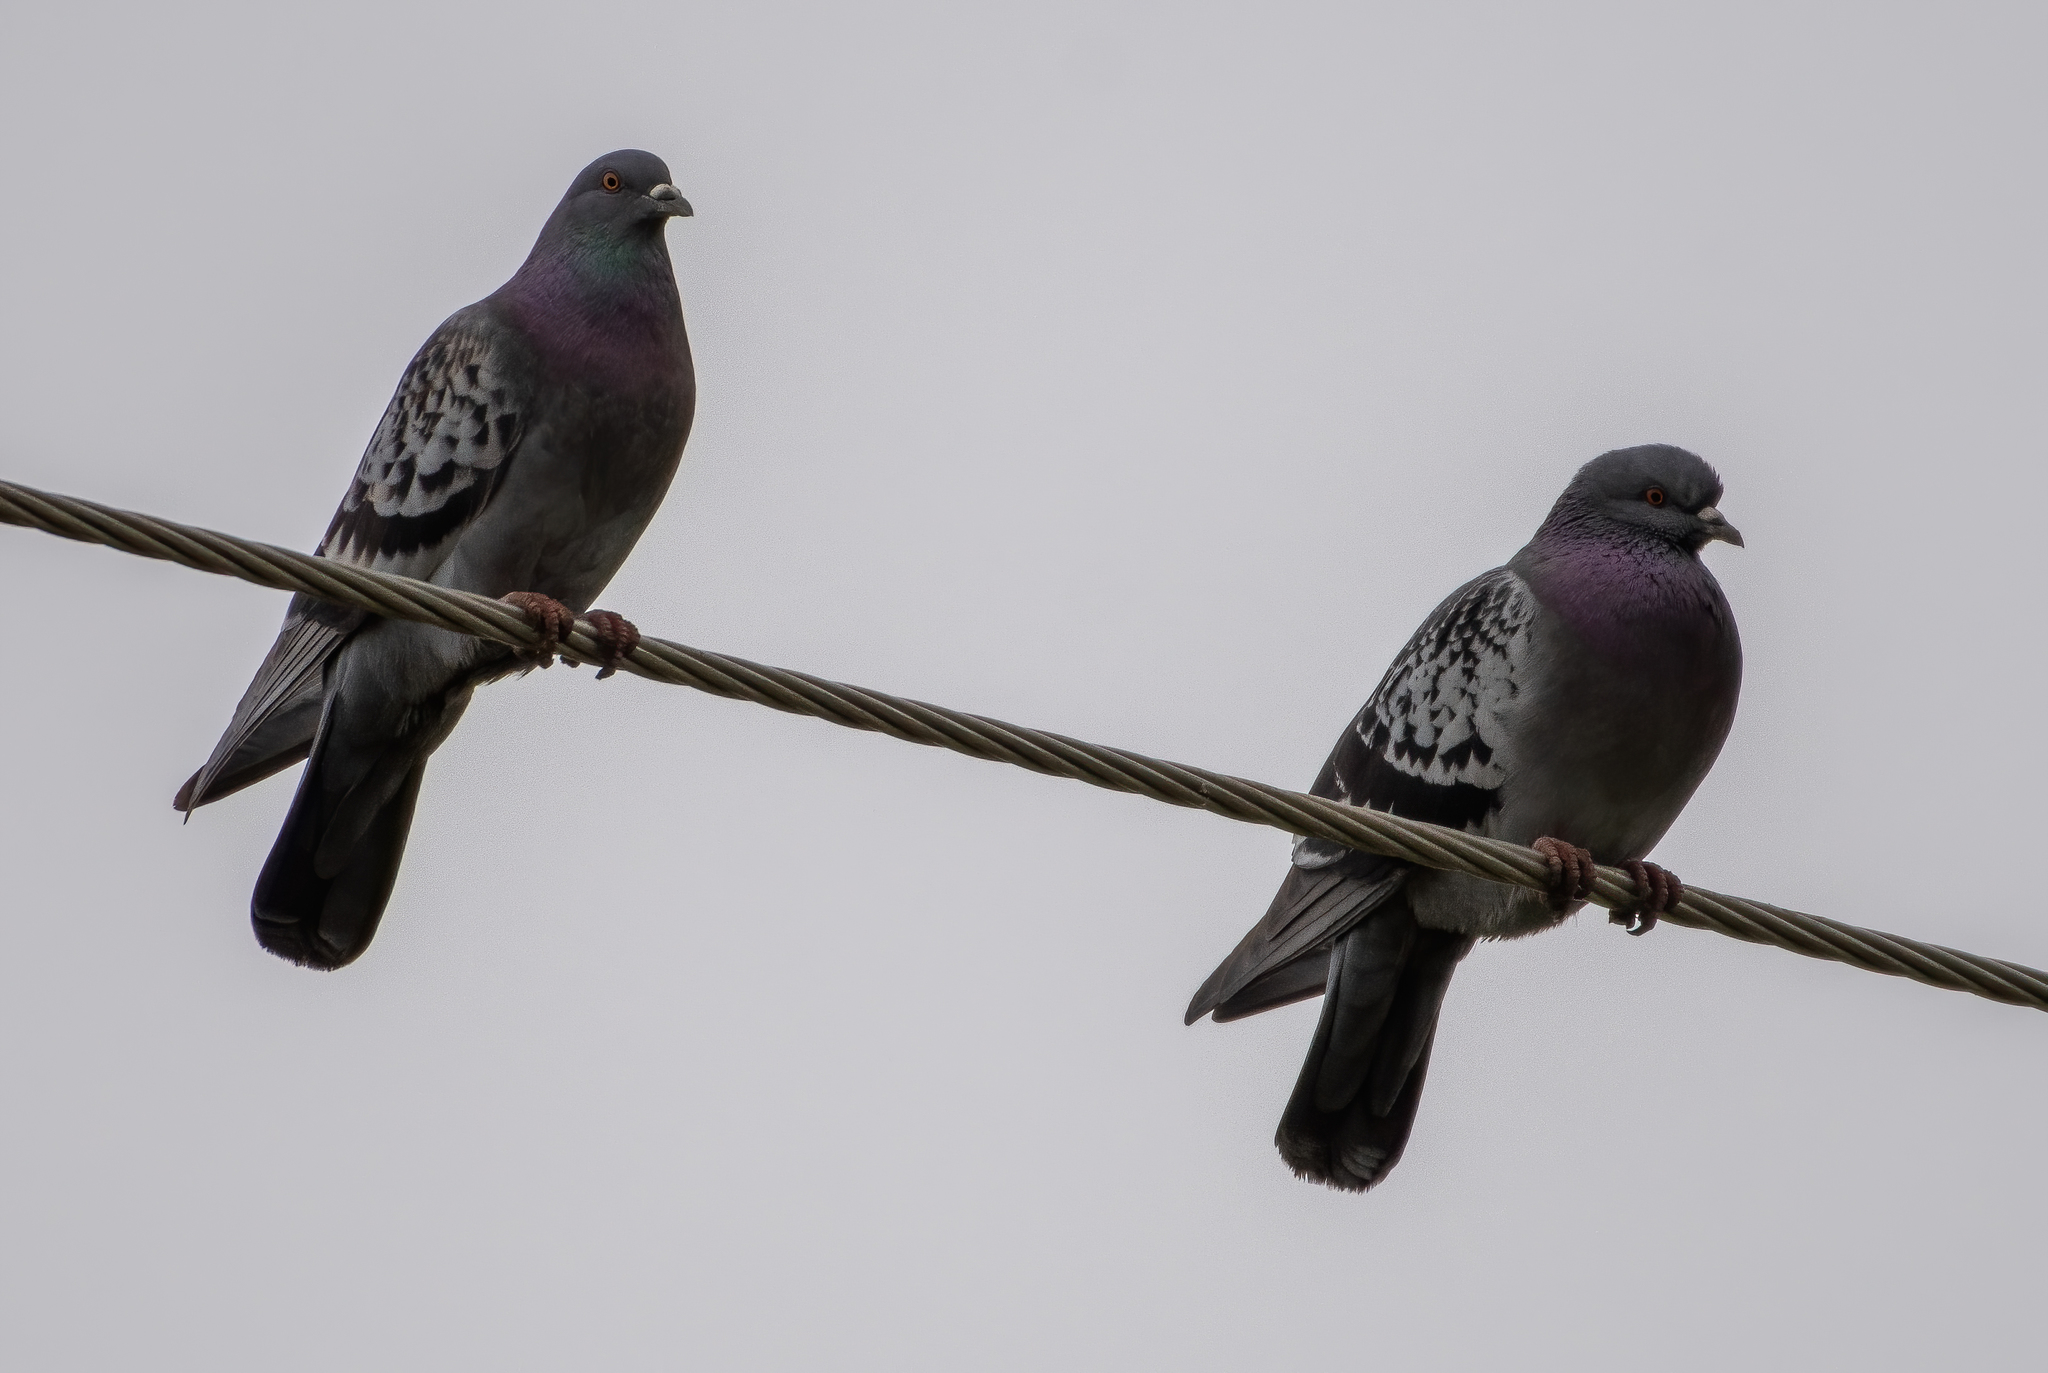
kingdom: Animalia
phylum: Chordata
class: Aves
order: Columbiformes
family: Columbidae
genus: Columba
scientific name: Columba livia
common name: Rock pigeon
